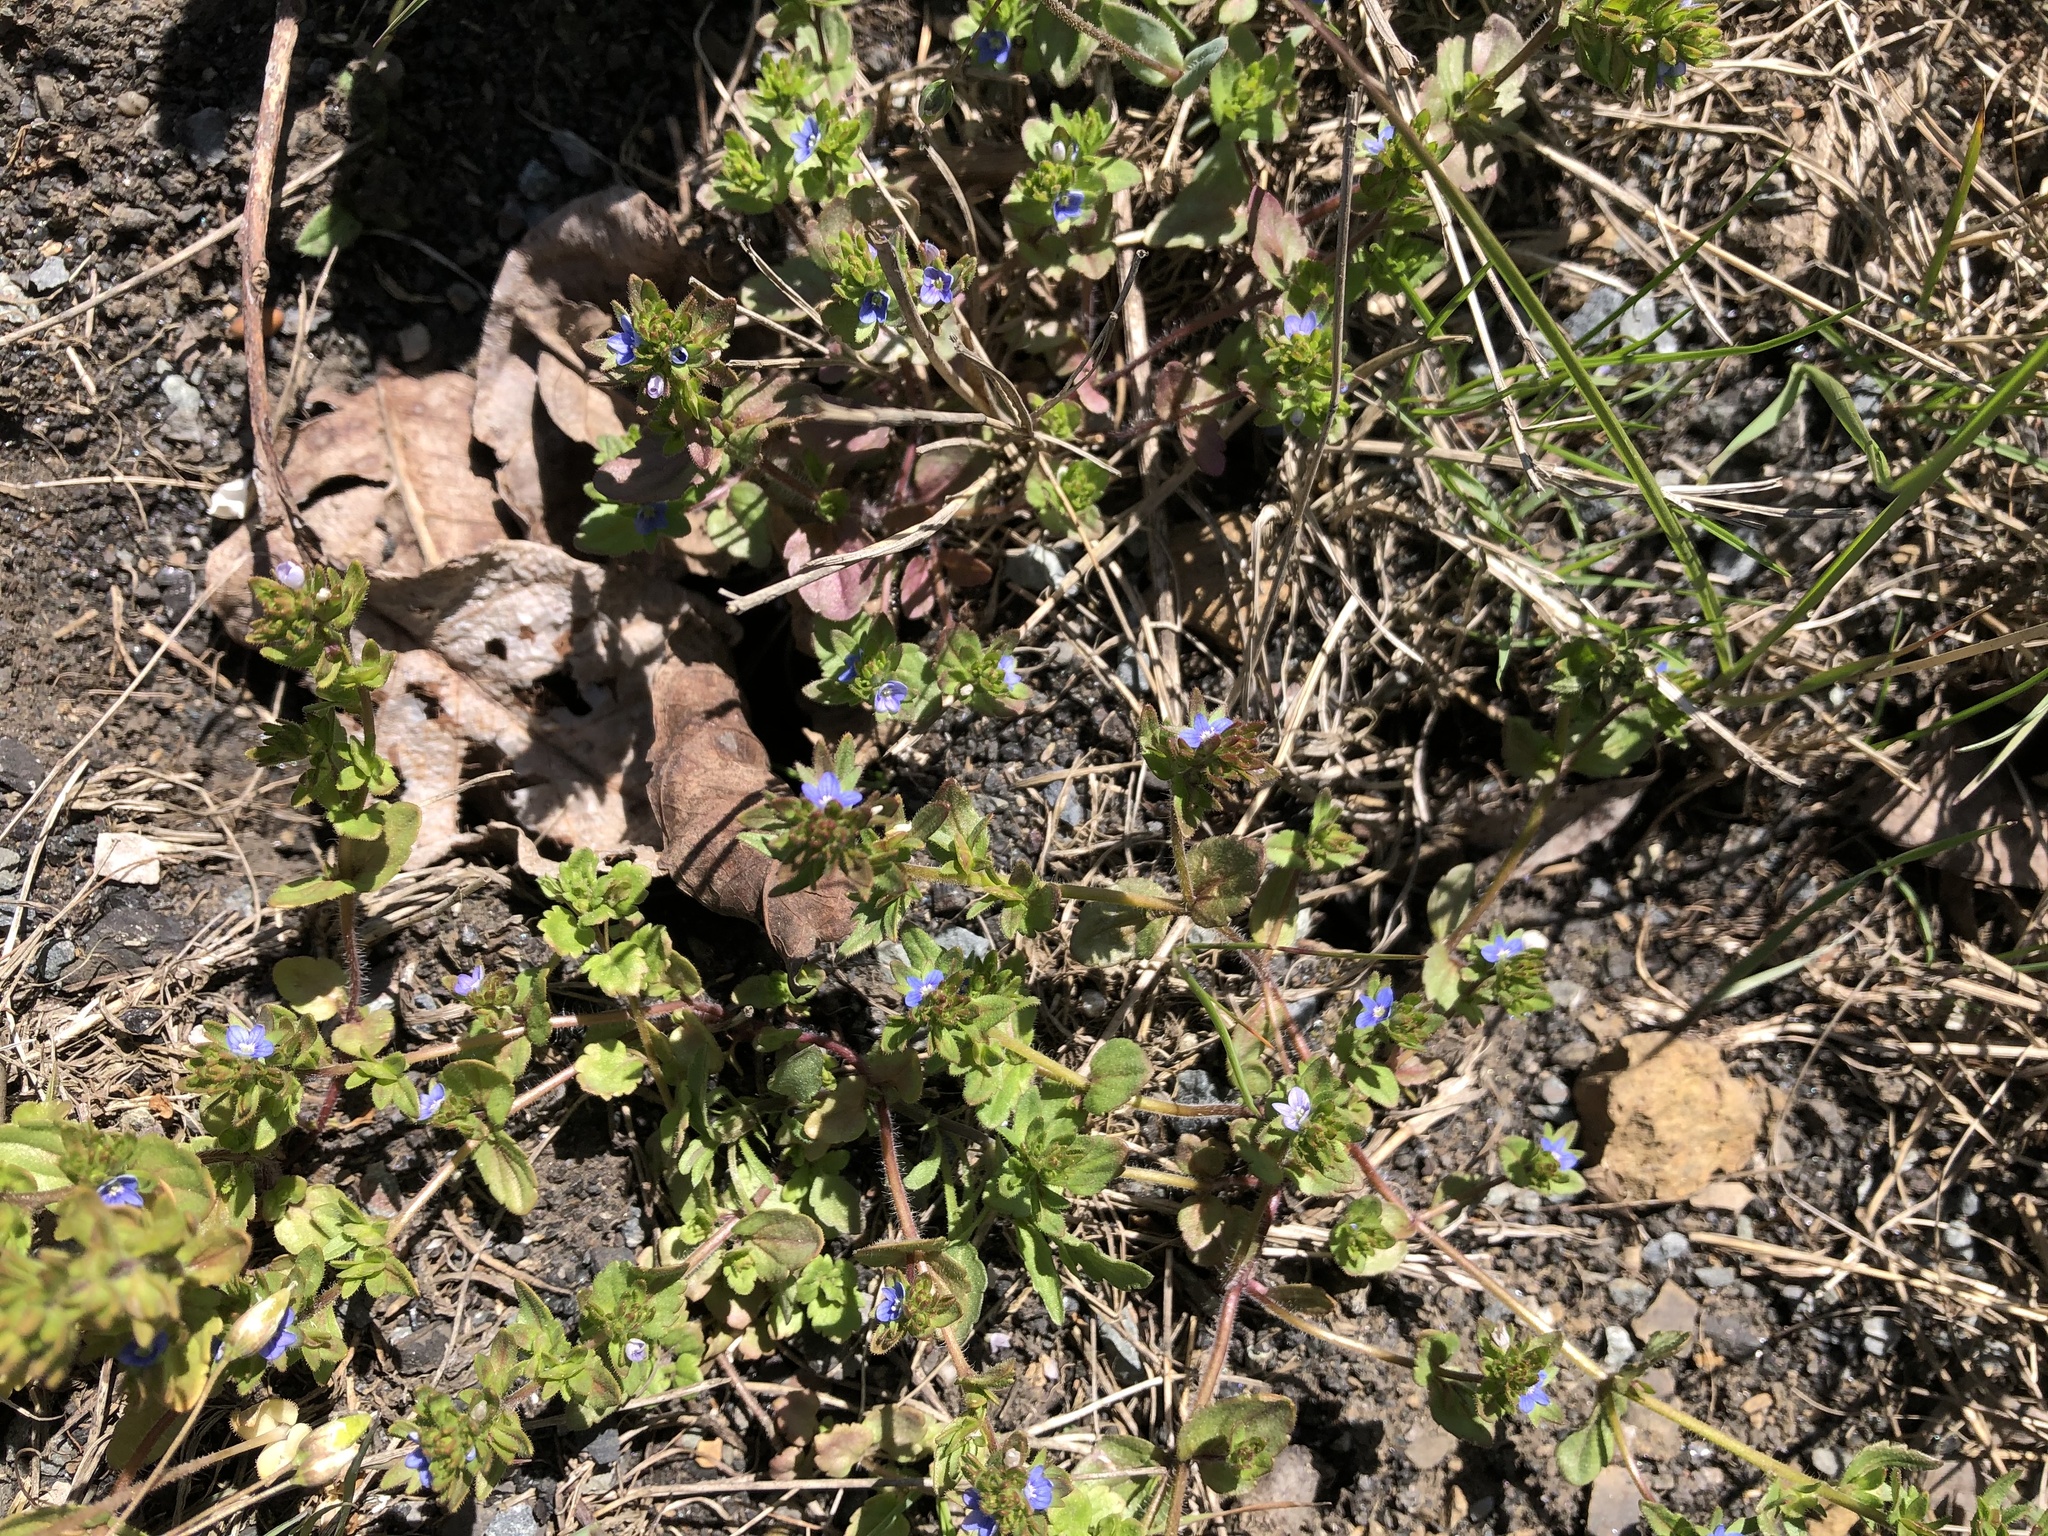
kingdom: Plantae
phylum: Tracheophyta
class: Magnoliopsida
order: Lamiales
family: Plantaginaceae
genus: Veronica
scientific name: Veronica arvensis
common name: Corn speedwell
